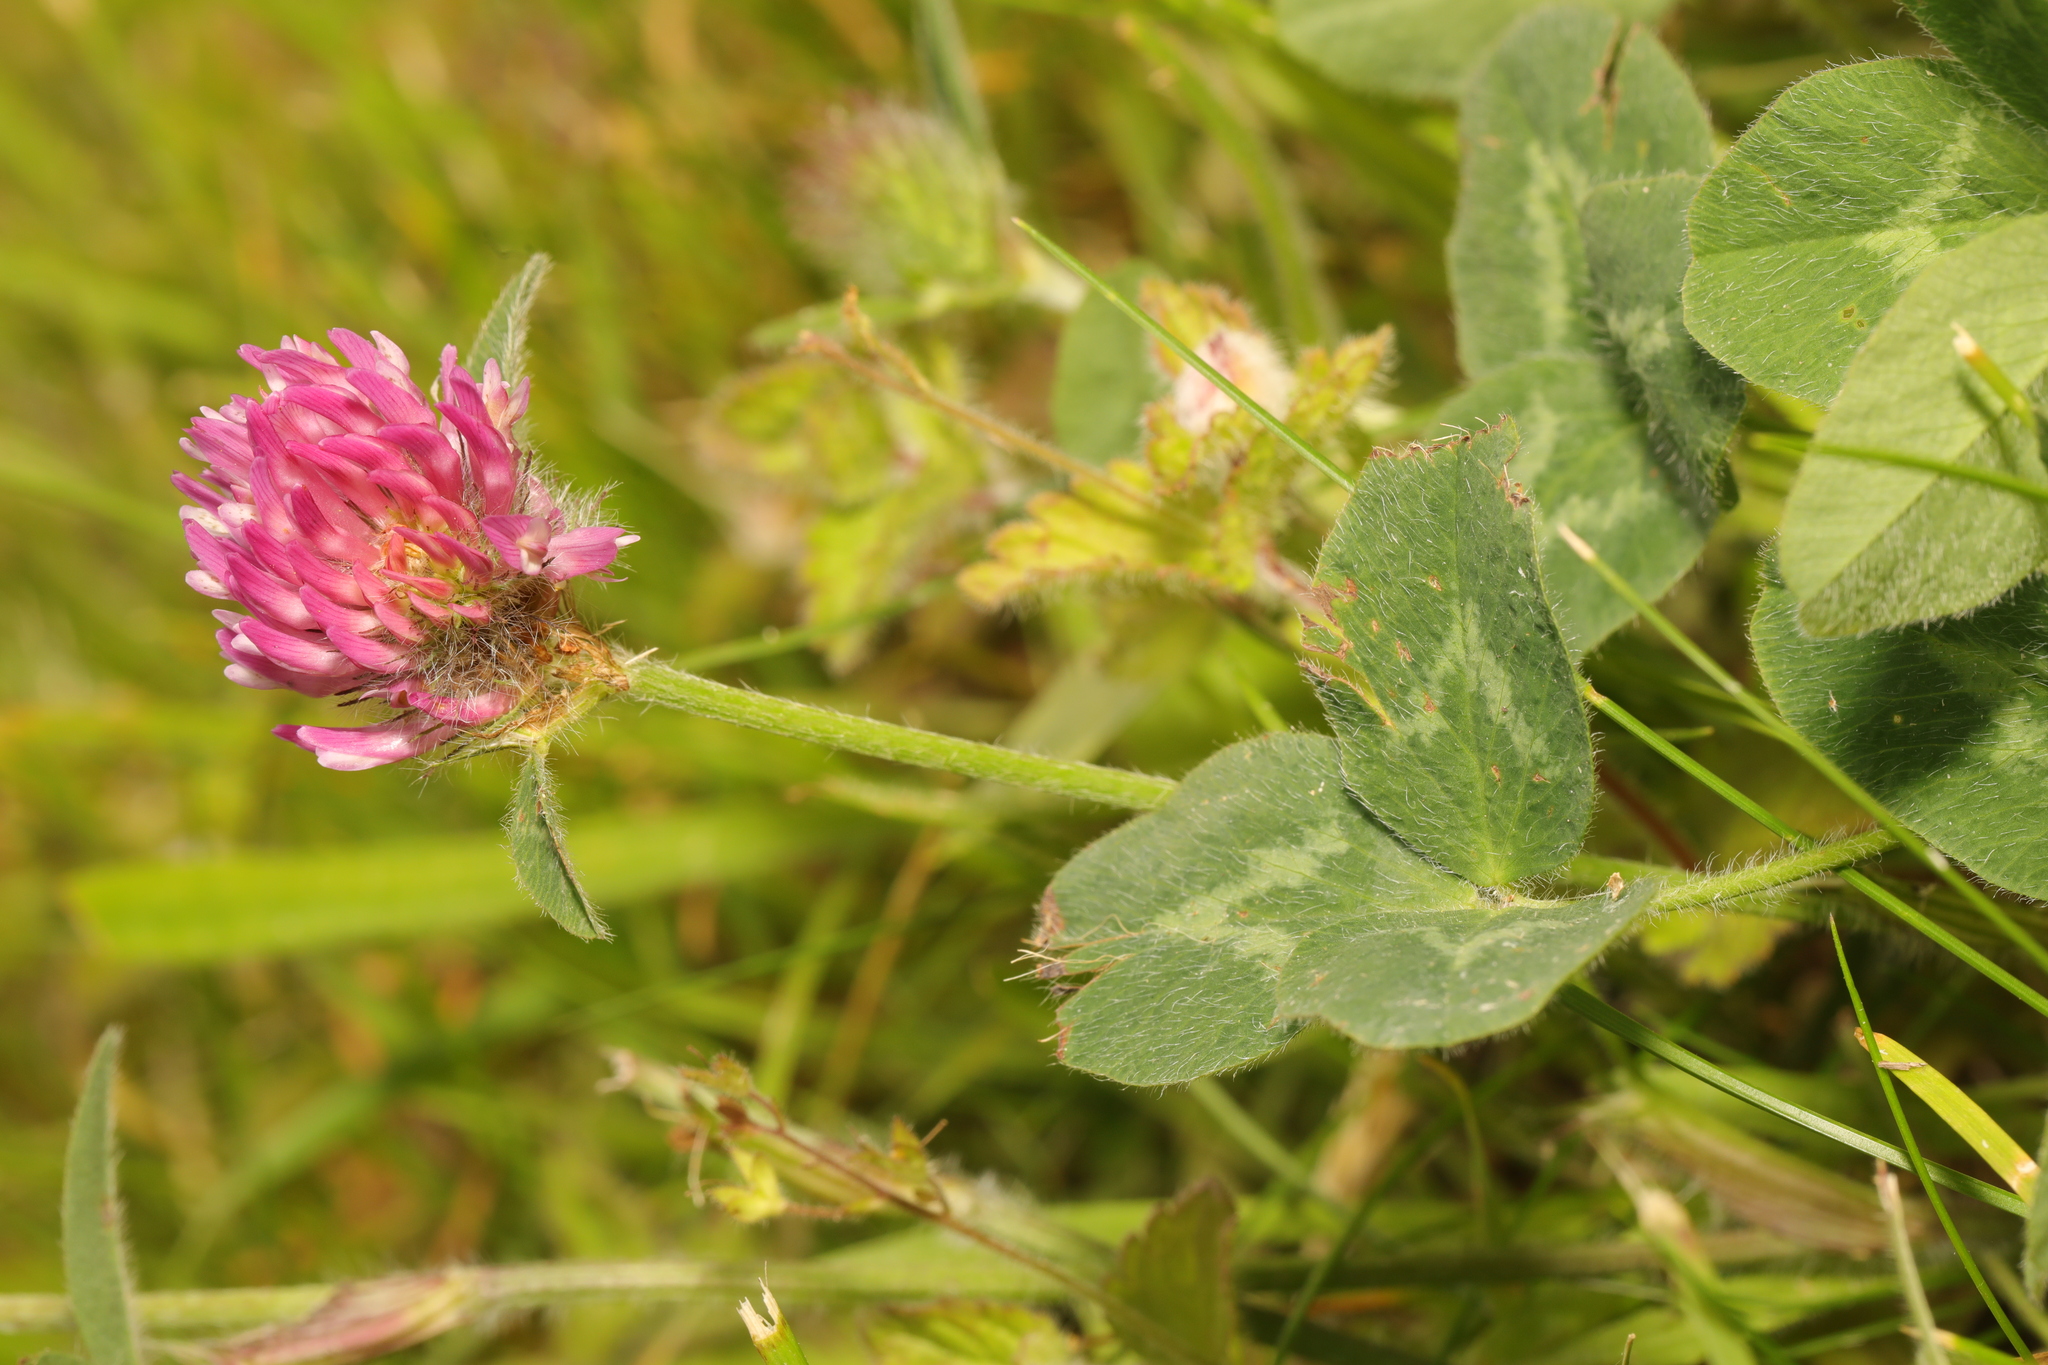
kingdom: Plantae
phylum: Tracheophyta
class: Magnoliopsida
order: Fabales
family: Fabaceae
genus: Trifolium
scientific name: Trifolium pratense
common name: Red clover
